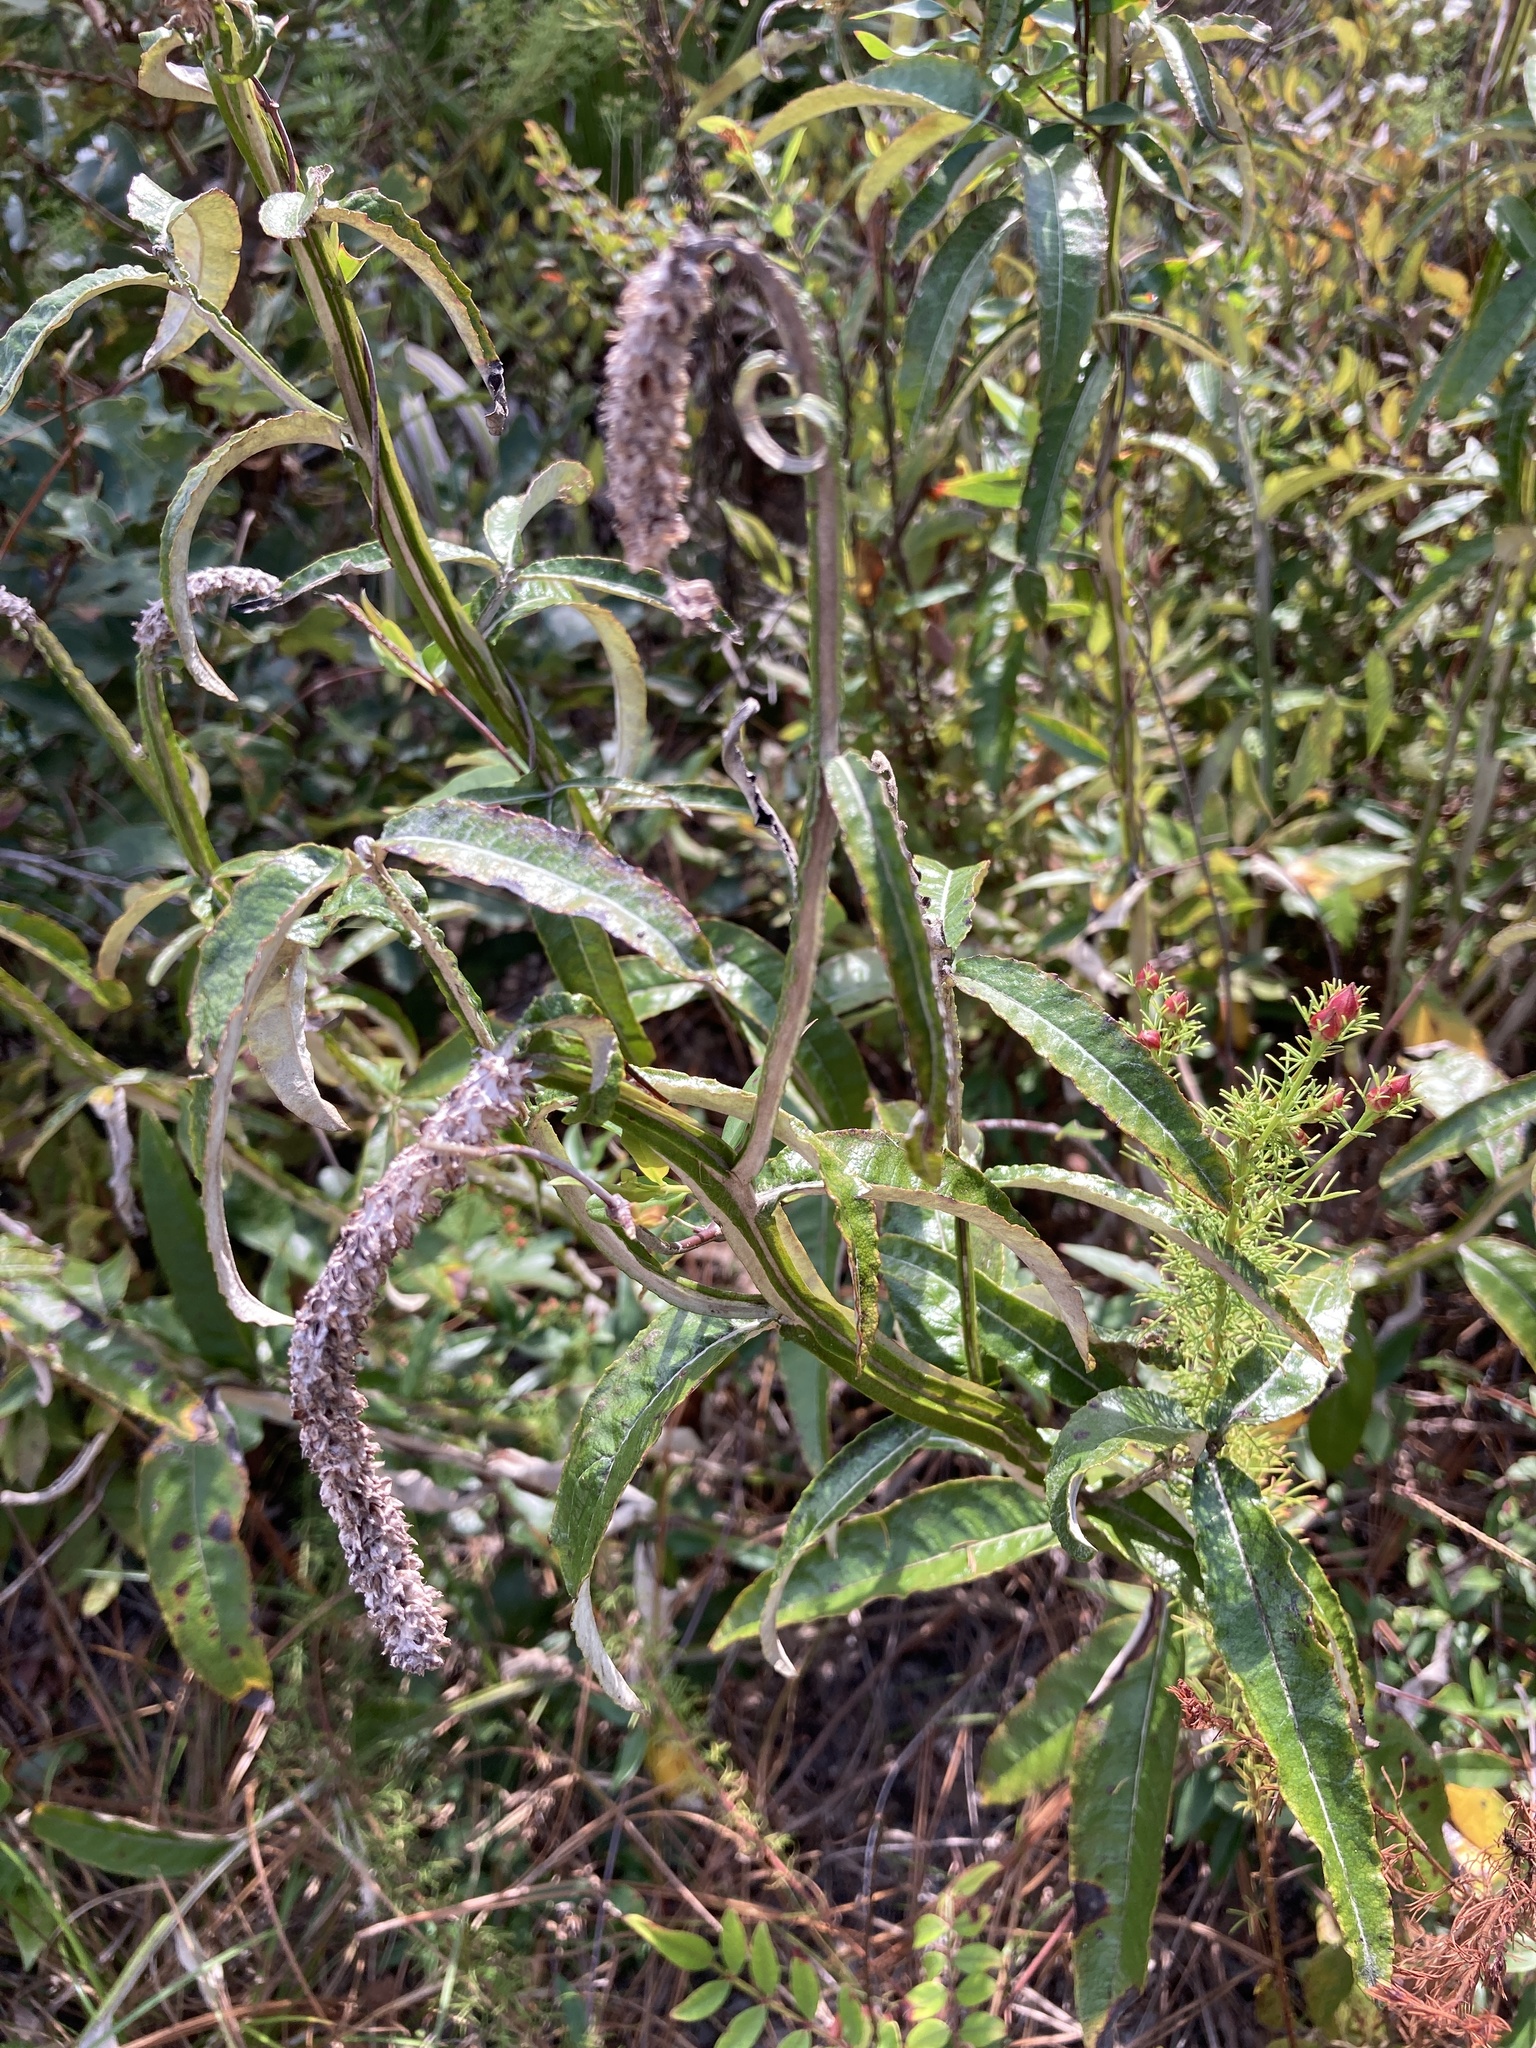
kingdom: Plantae
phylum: Tracheophyta
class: Magnoliopsida
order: Asterales
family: Asteraceae
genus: Pterocaulon
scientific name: Pterocaulon pycnostachyum
